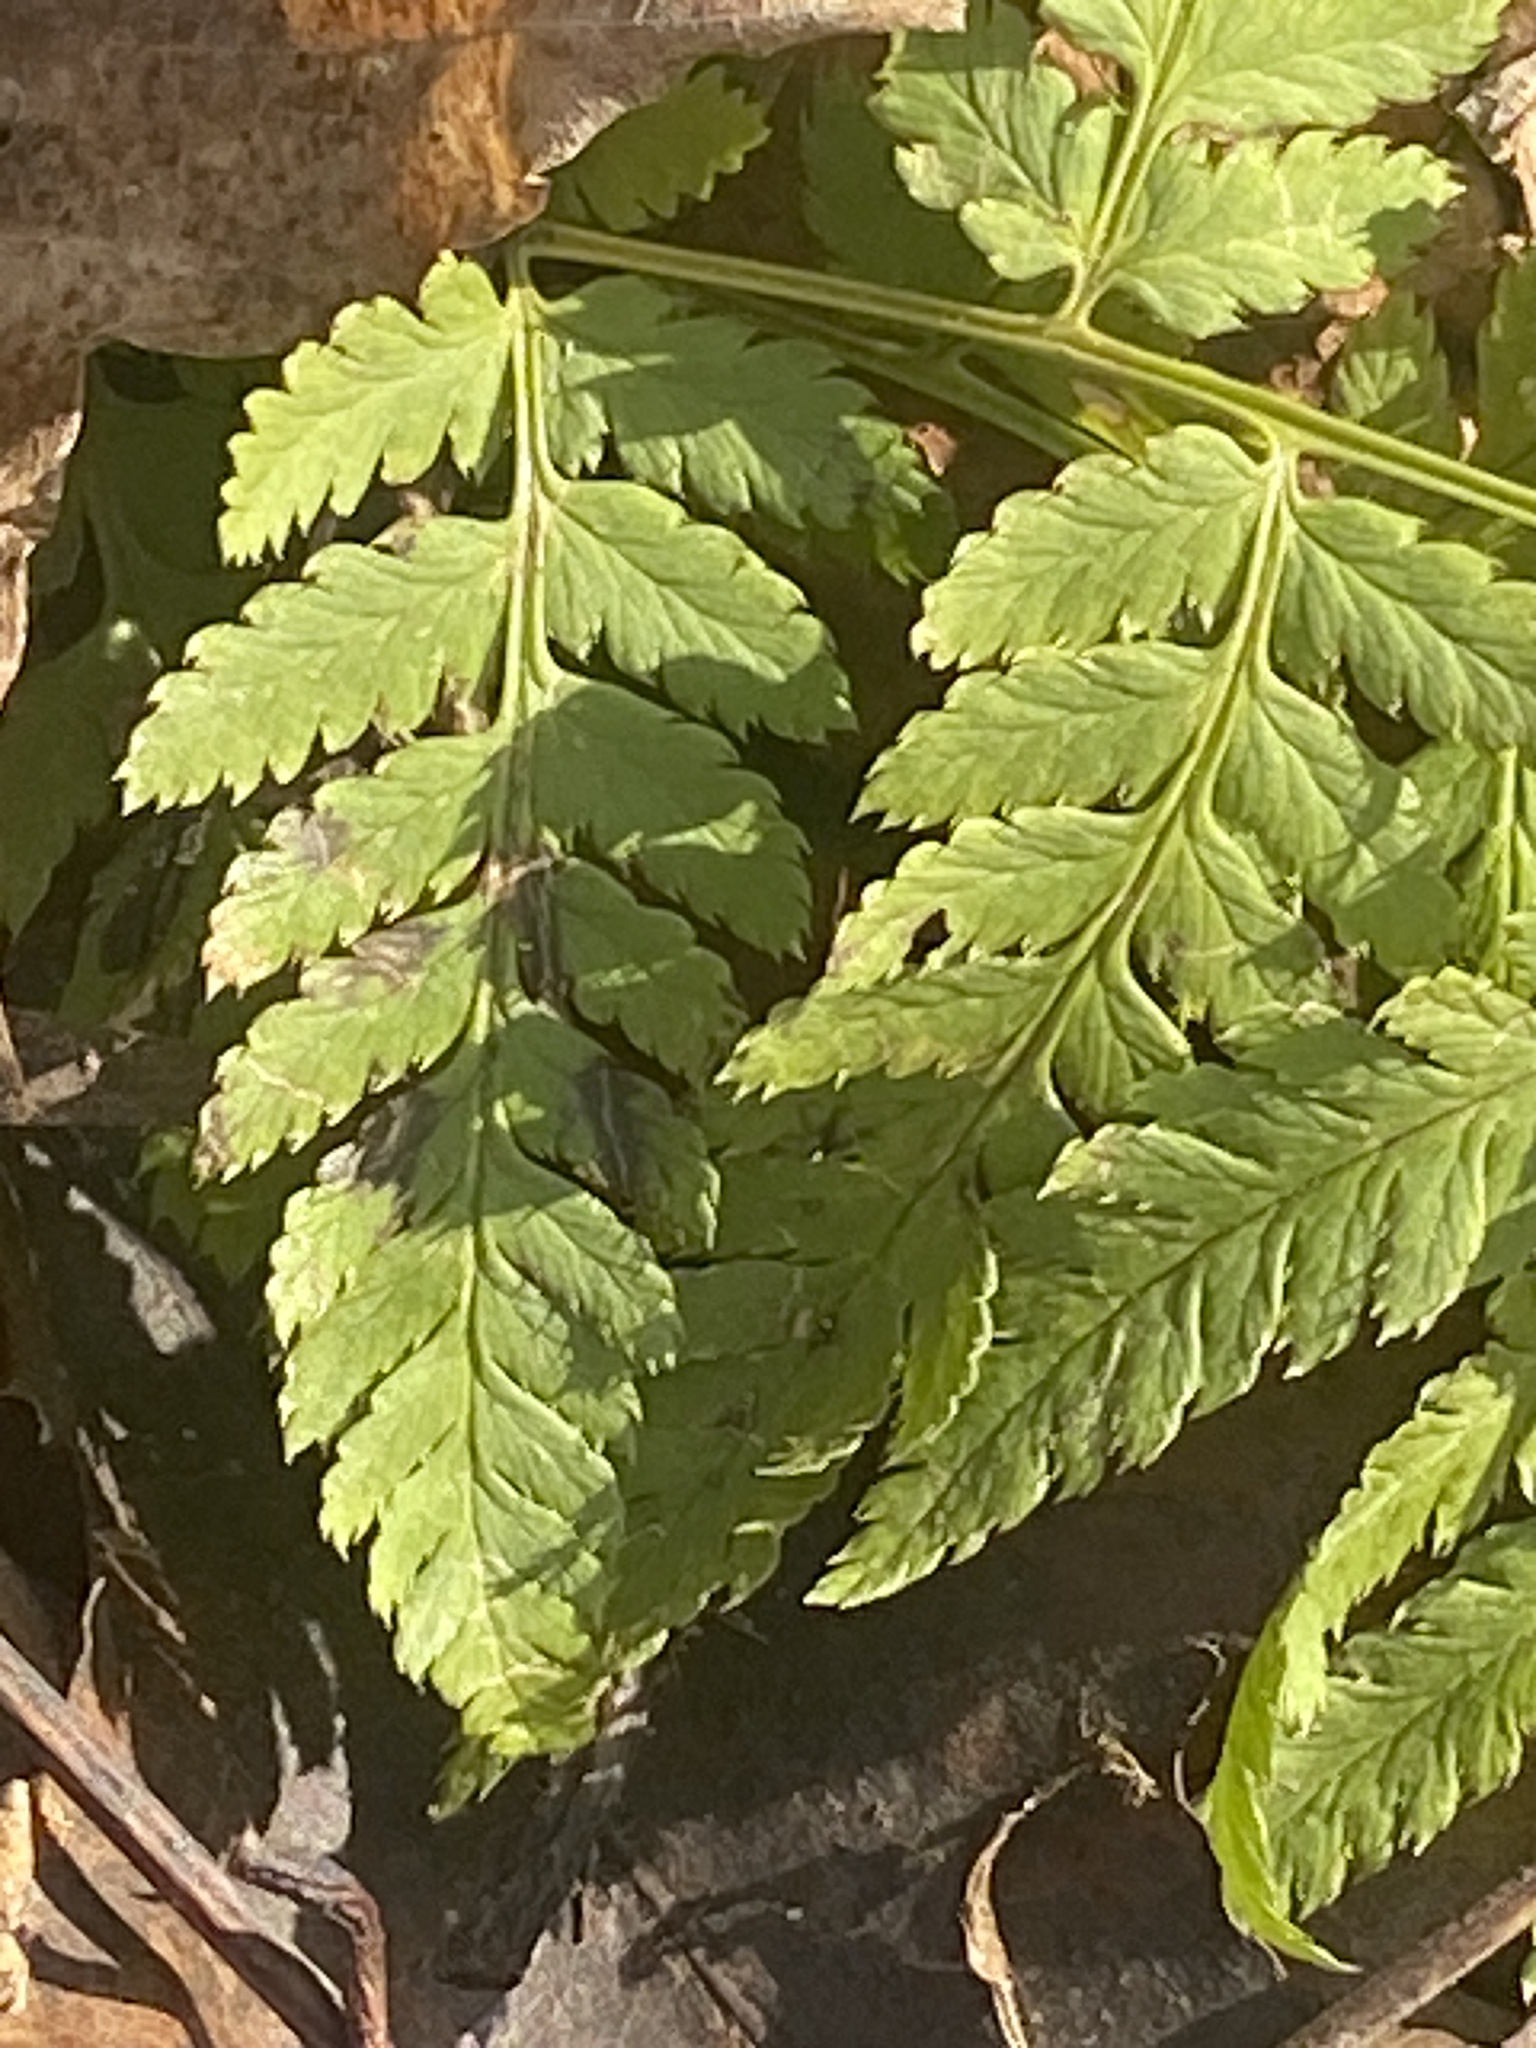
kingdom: Plantae
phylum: Tracheophyta
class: Polypodiopsida
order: Polypodiales
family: Dryopteridaceae
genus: Dryopteris
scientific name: Dryopteris intermedia
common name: Evergreen wood fern
